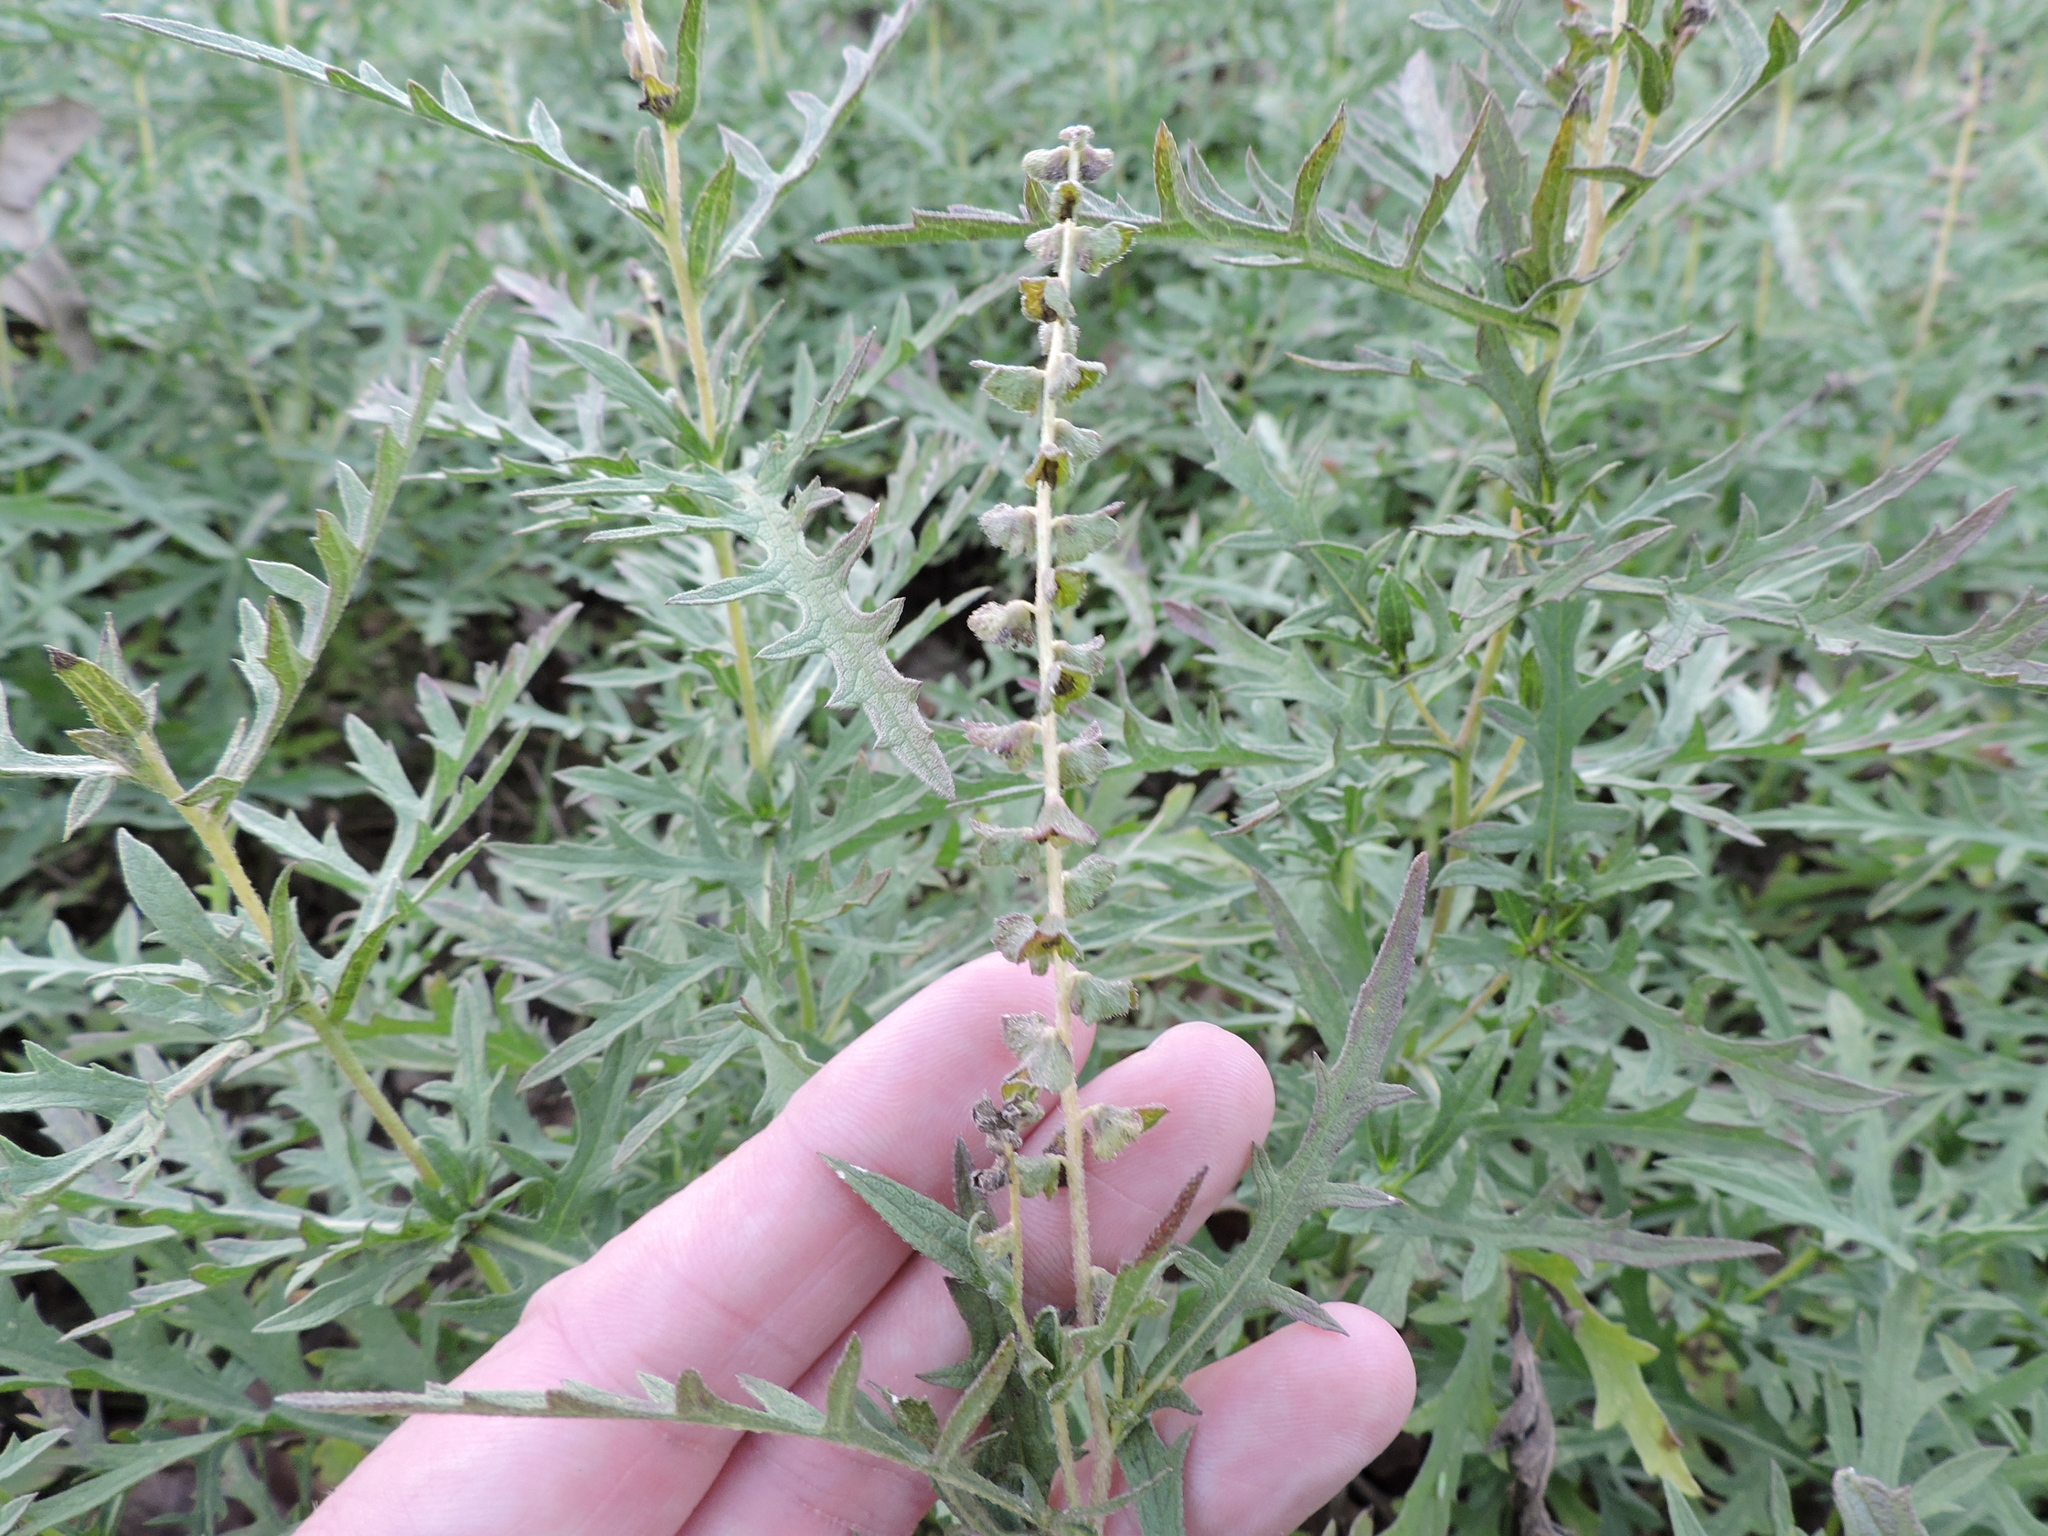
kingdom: Plantae
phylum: Tracheophyta
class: Magnoliopsida
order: Asterales
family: Asteraceae
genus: Ambrosia
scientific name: Ambrosia psilostachya
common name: Perennial ragweed
